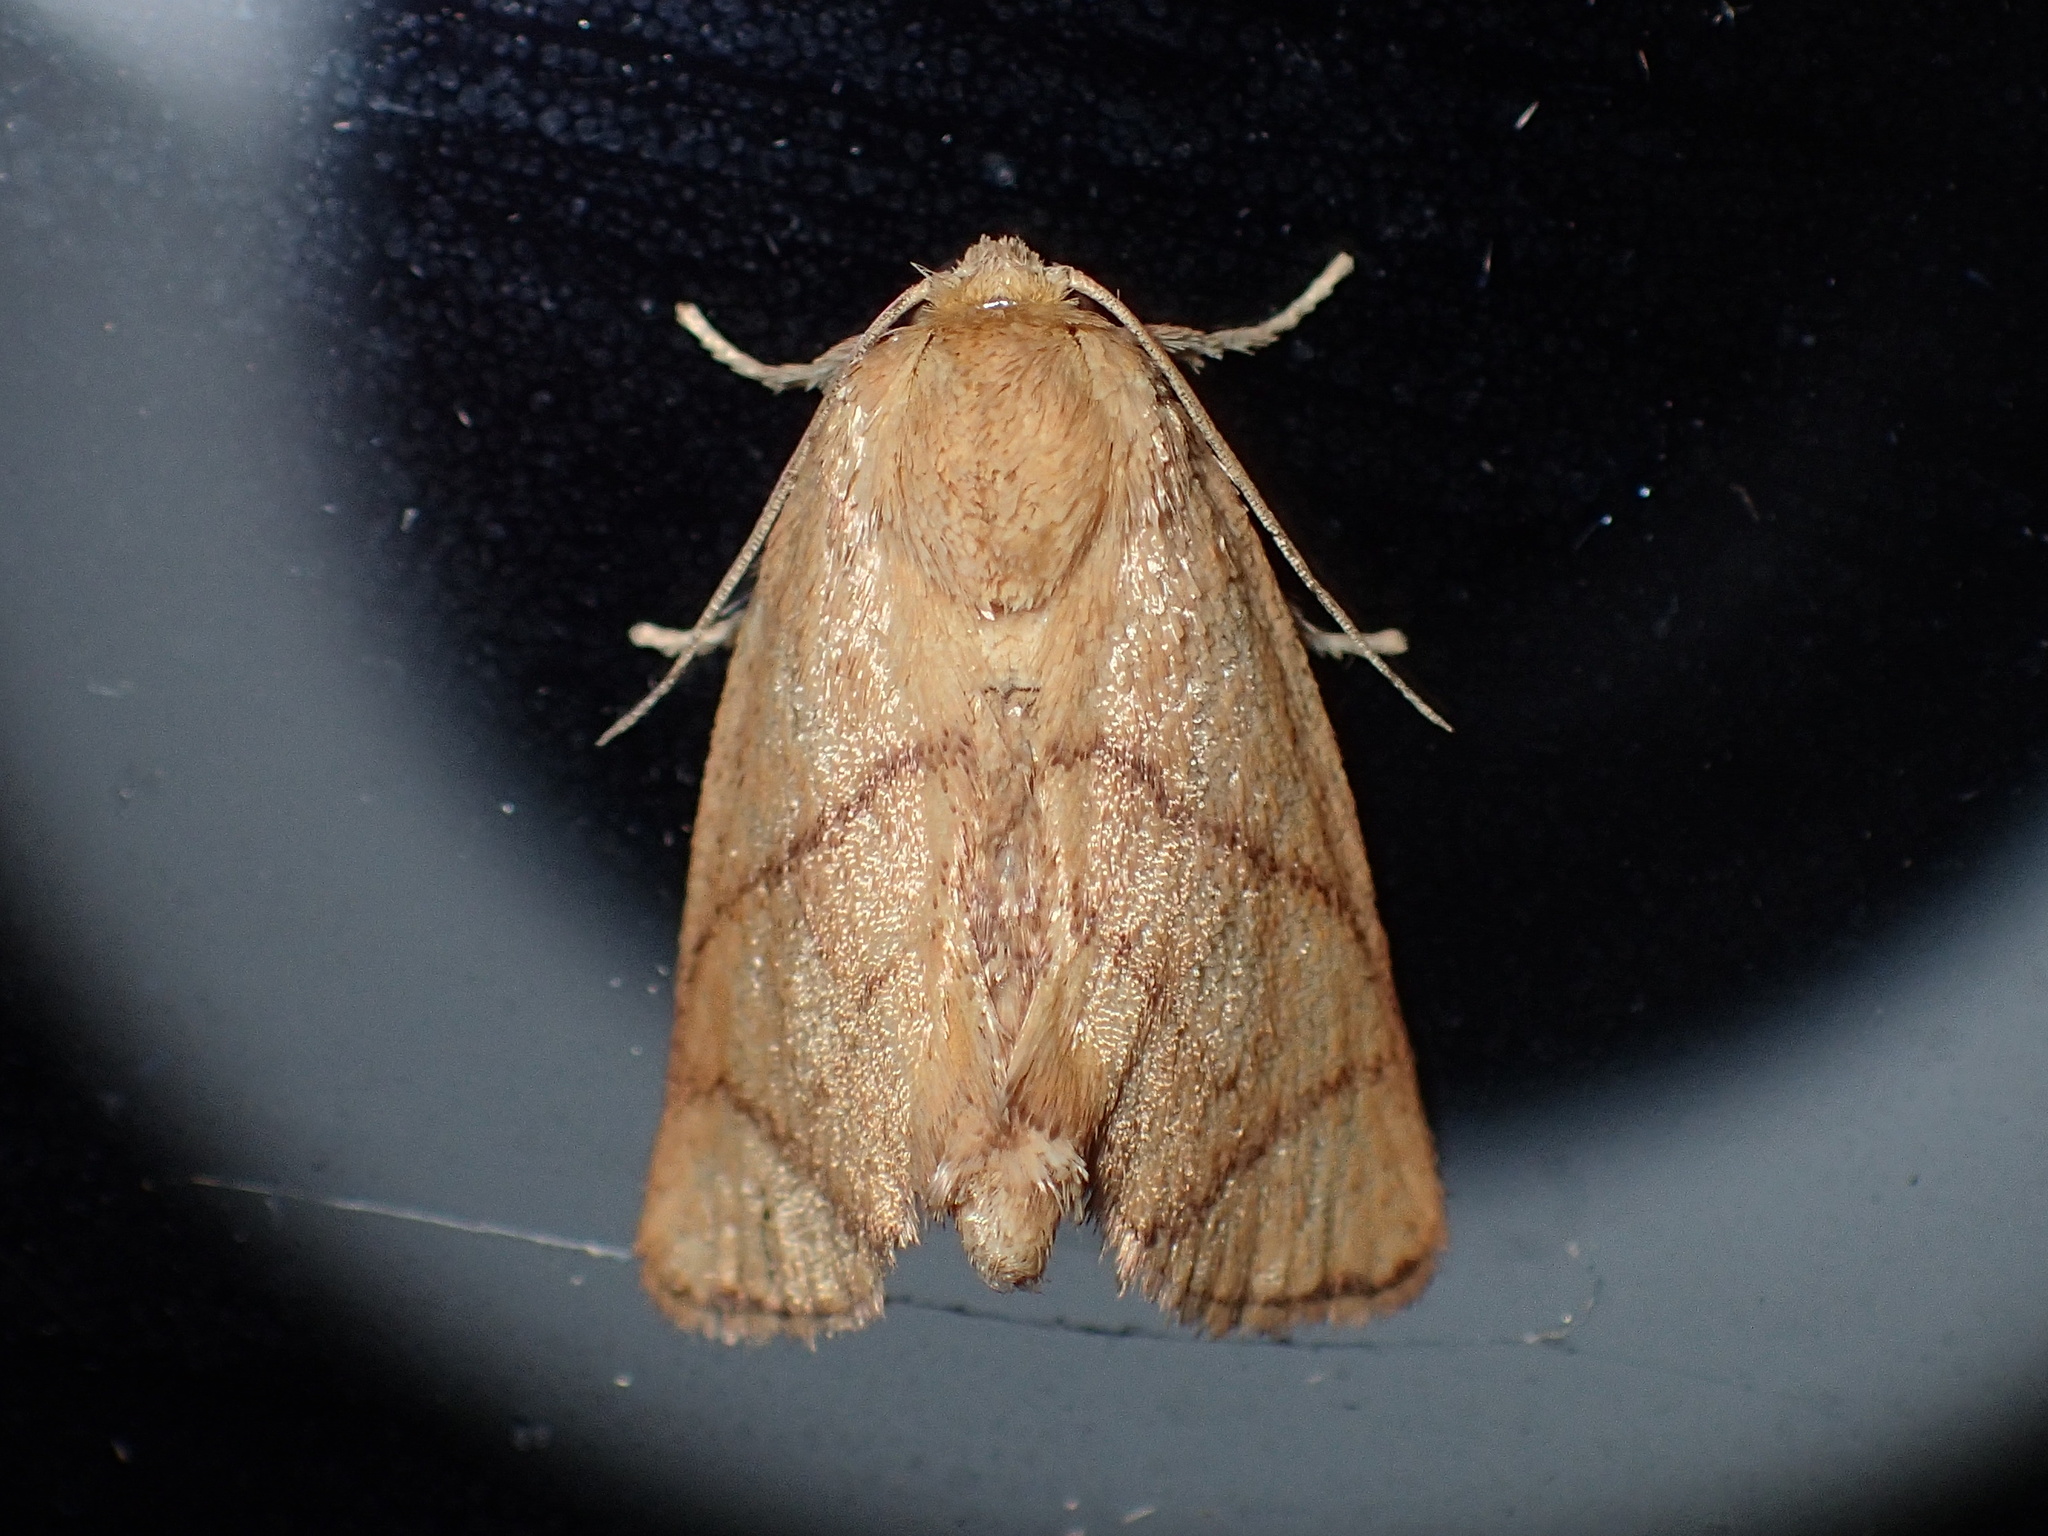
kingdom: Animalia
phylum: Arthropoda
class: Insecta
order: Lepidoptera
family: Limacodidae
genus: Apoda
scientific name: Apoda y-inversa
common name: Yellow-collared slug moth
